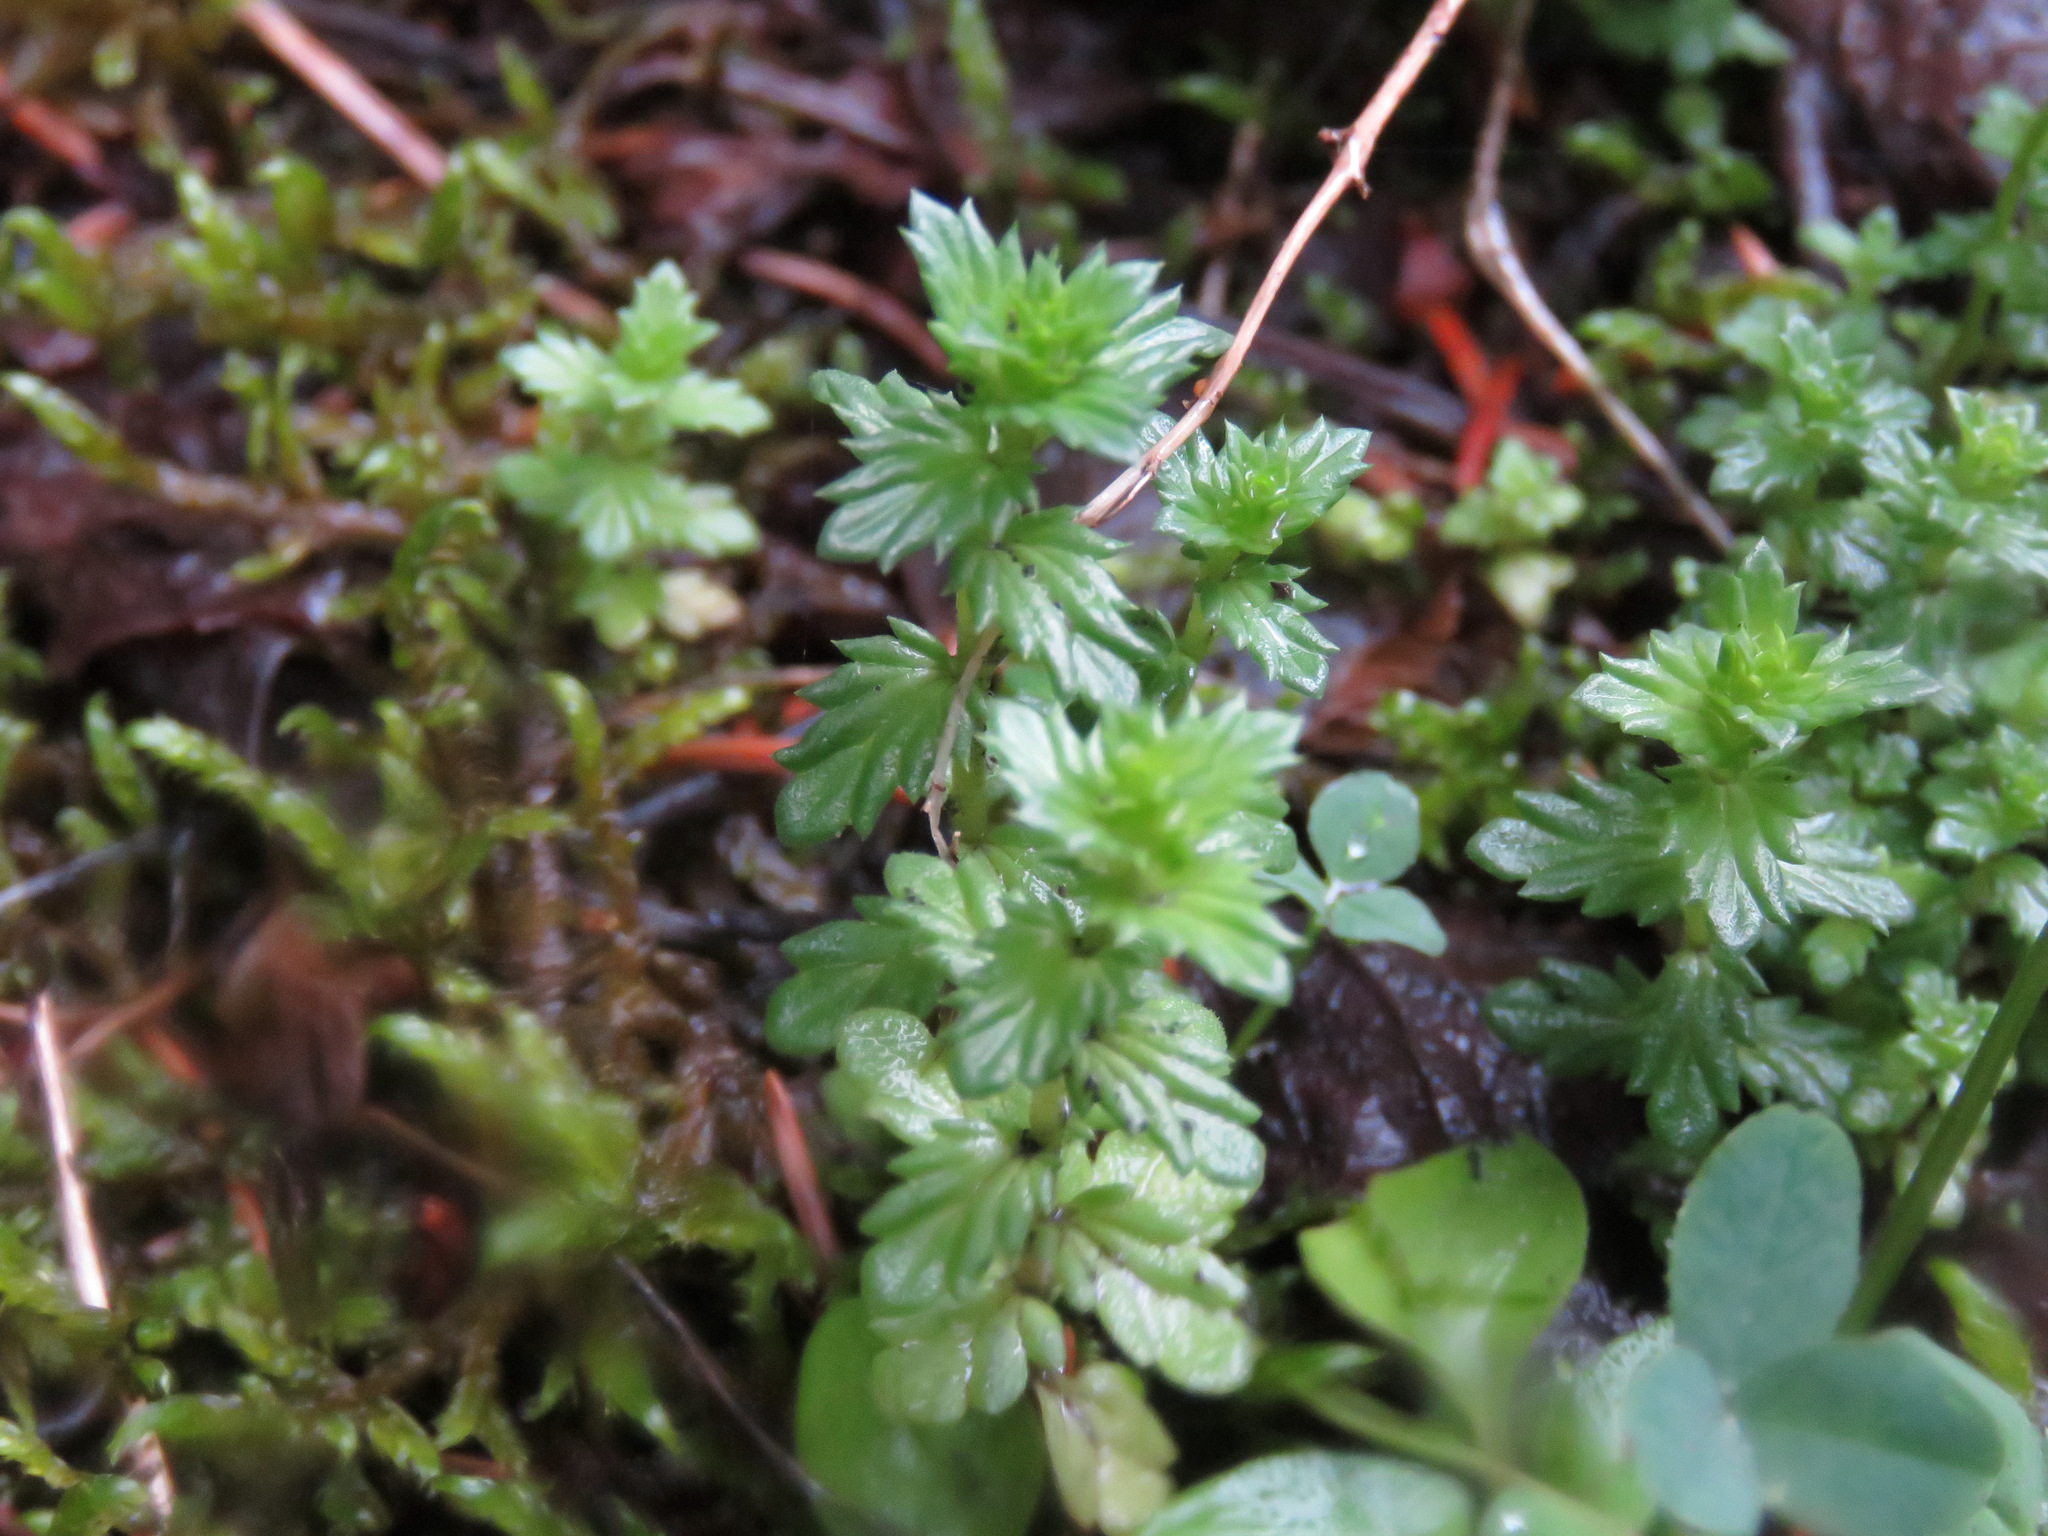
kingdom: Plantae
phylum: Tracheophyta
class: Magnoliopsida
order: Lamiales
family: Orobanchaceae
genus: Euphrasia
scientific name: Euphrasia nemorosa
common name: Common eyebright
